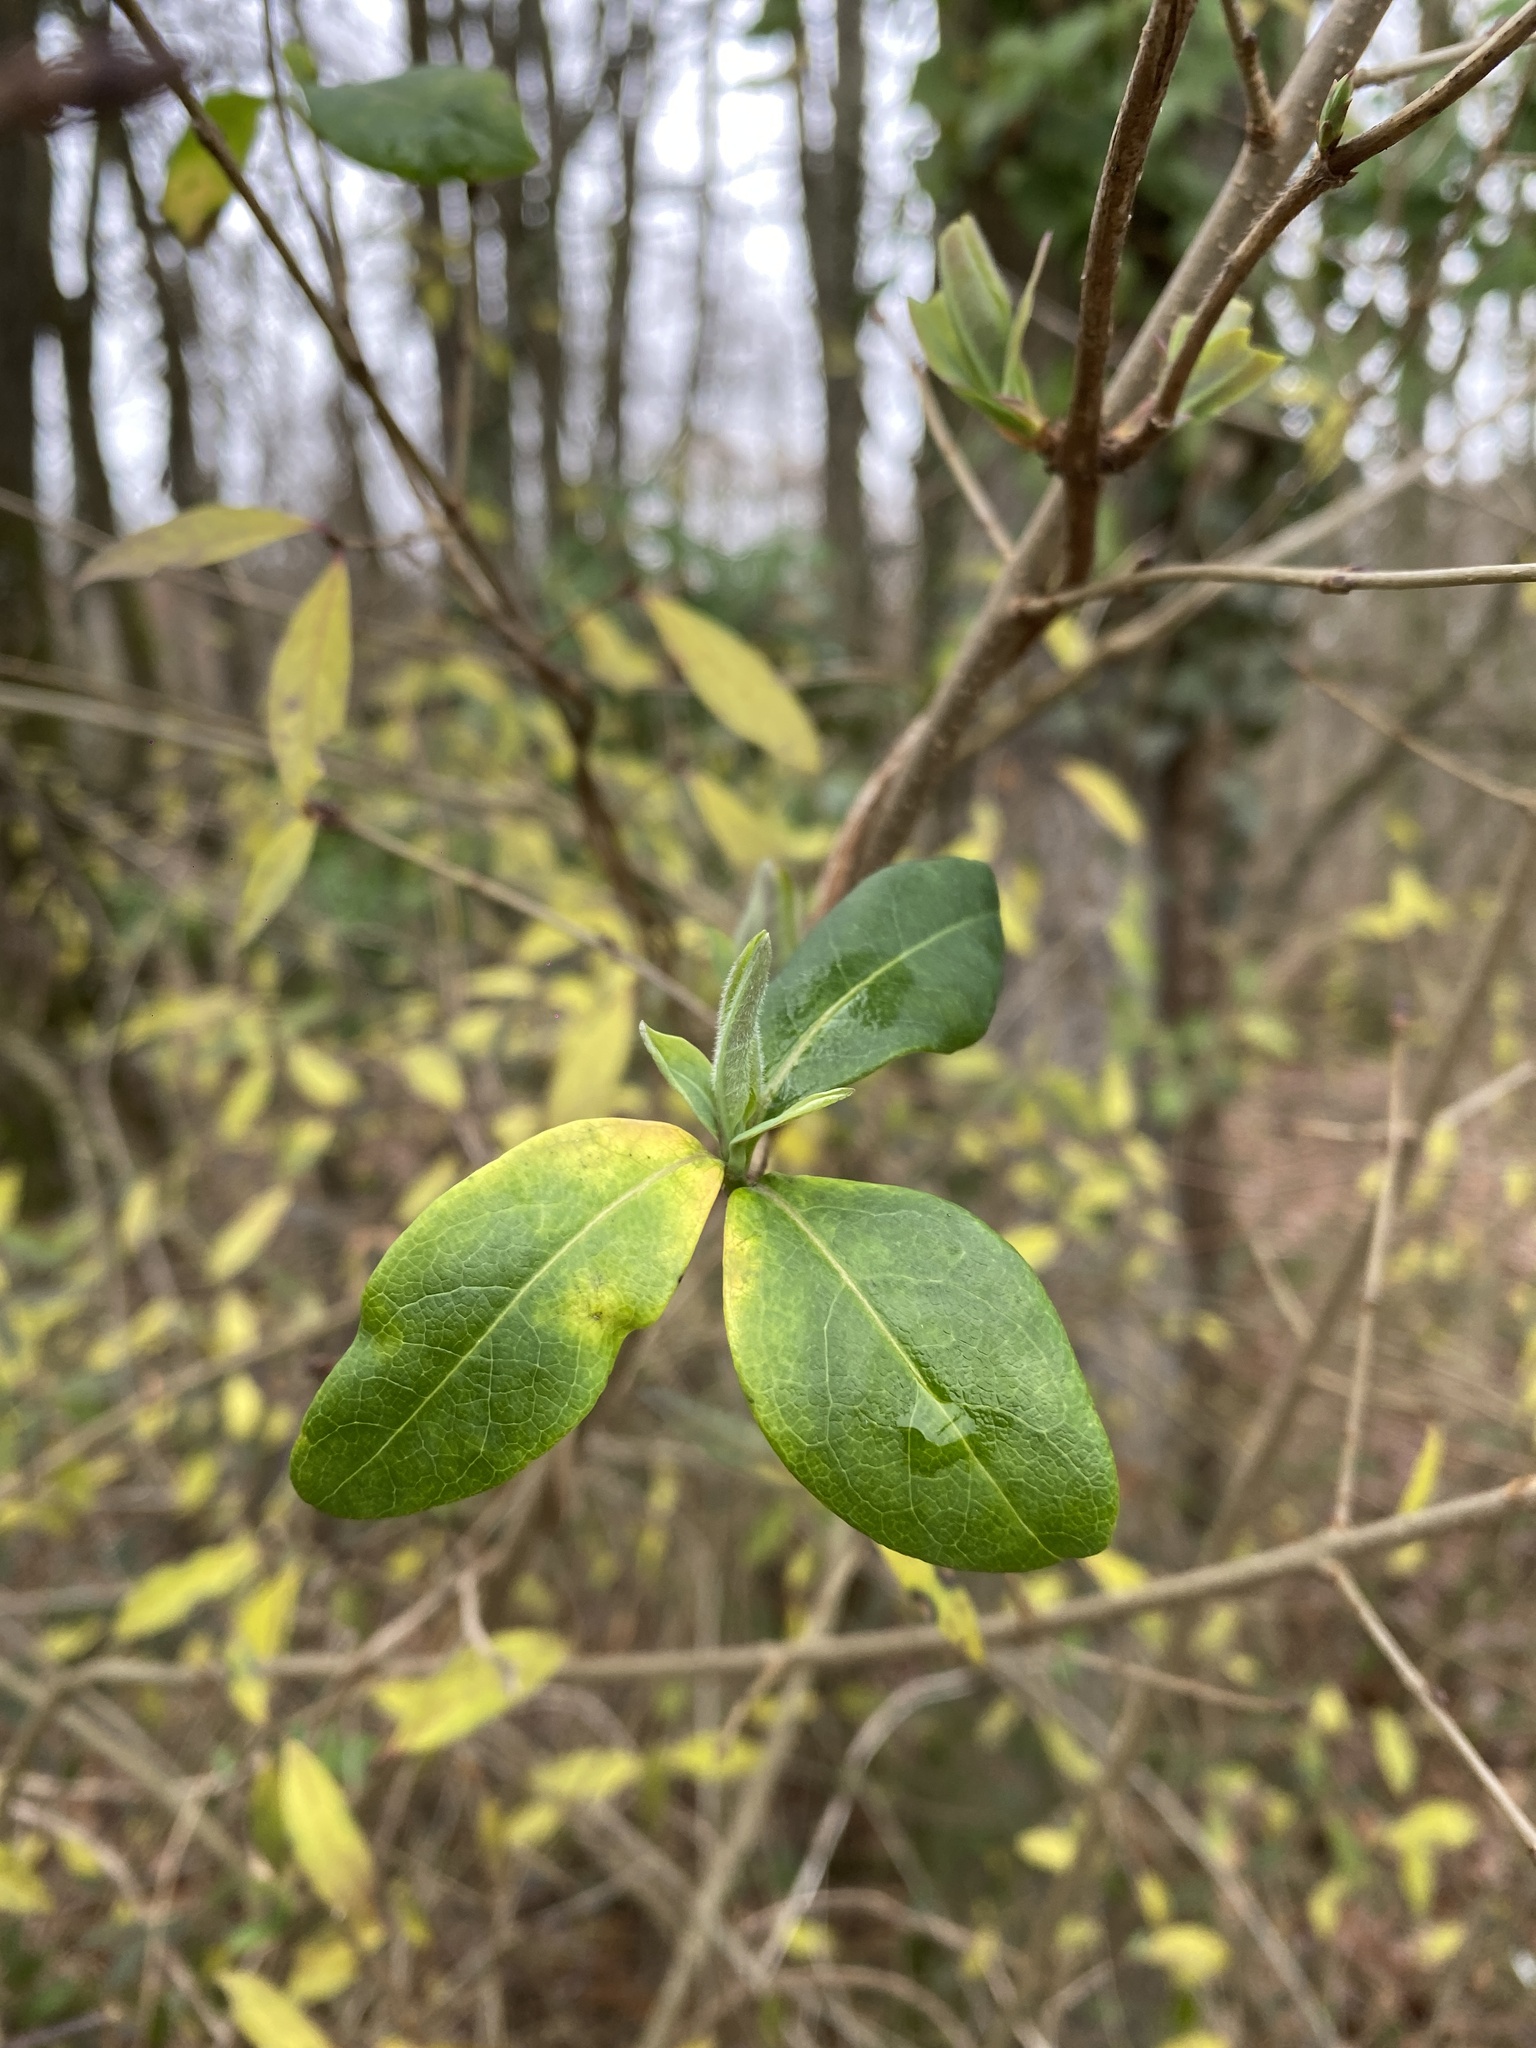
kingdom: Plantae
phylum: Tracheophyta
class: Magnoliopsida
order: Lamiales
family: Oleaceae
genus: Ligustrum
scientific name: Ligustrum vulgare
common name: Wild privet
